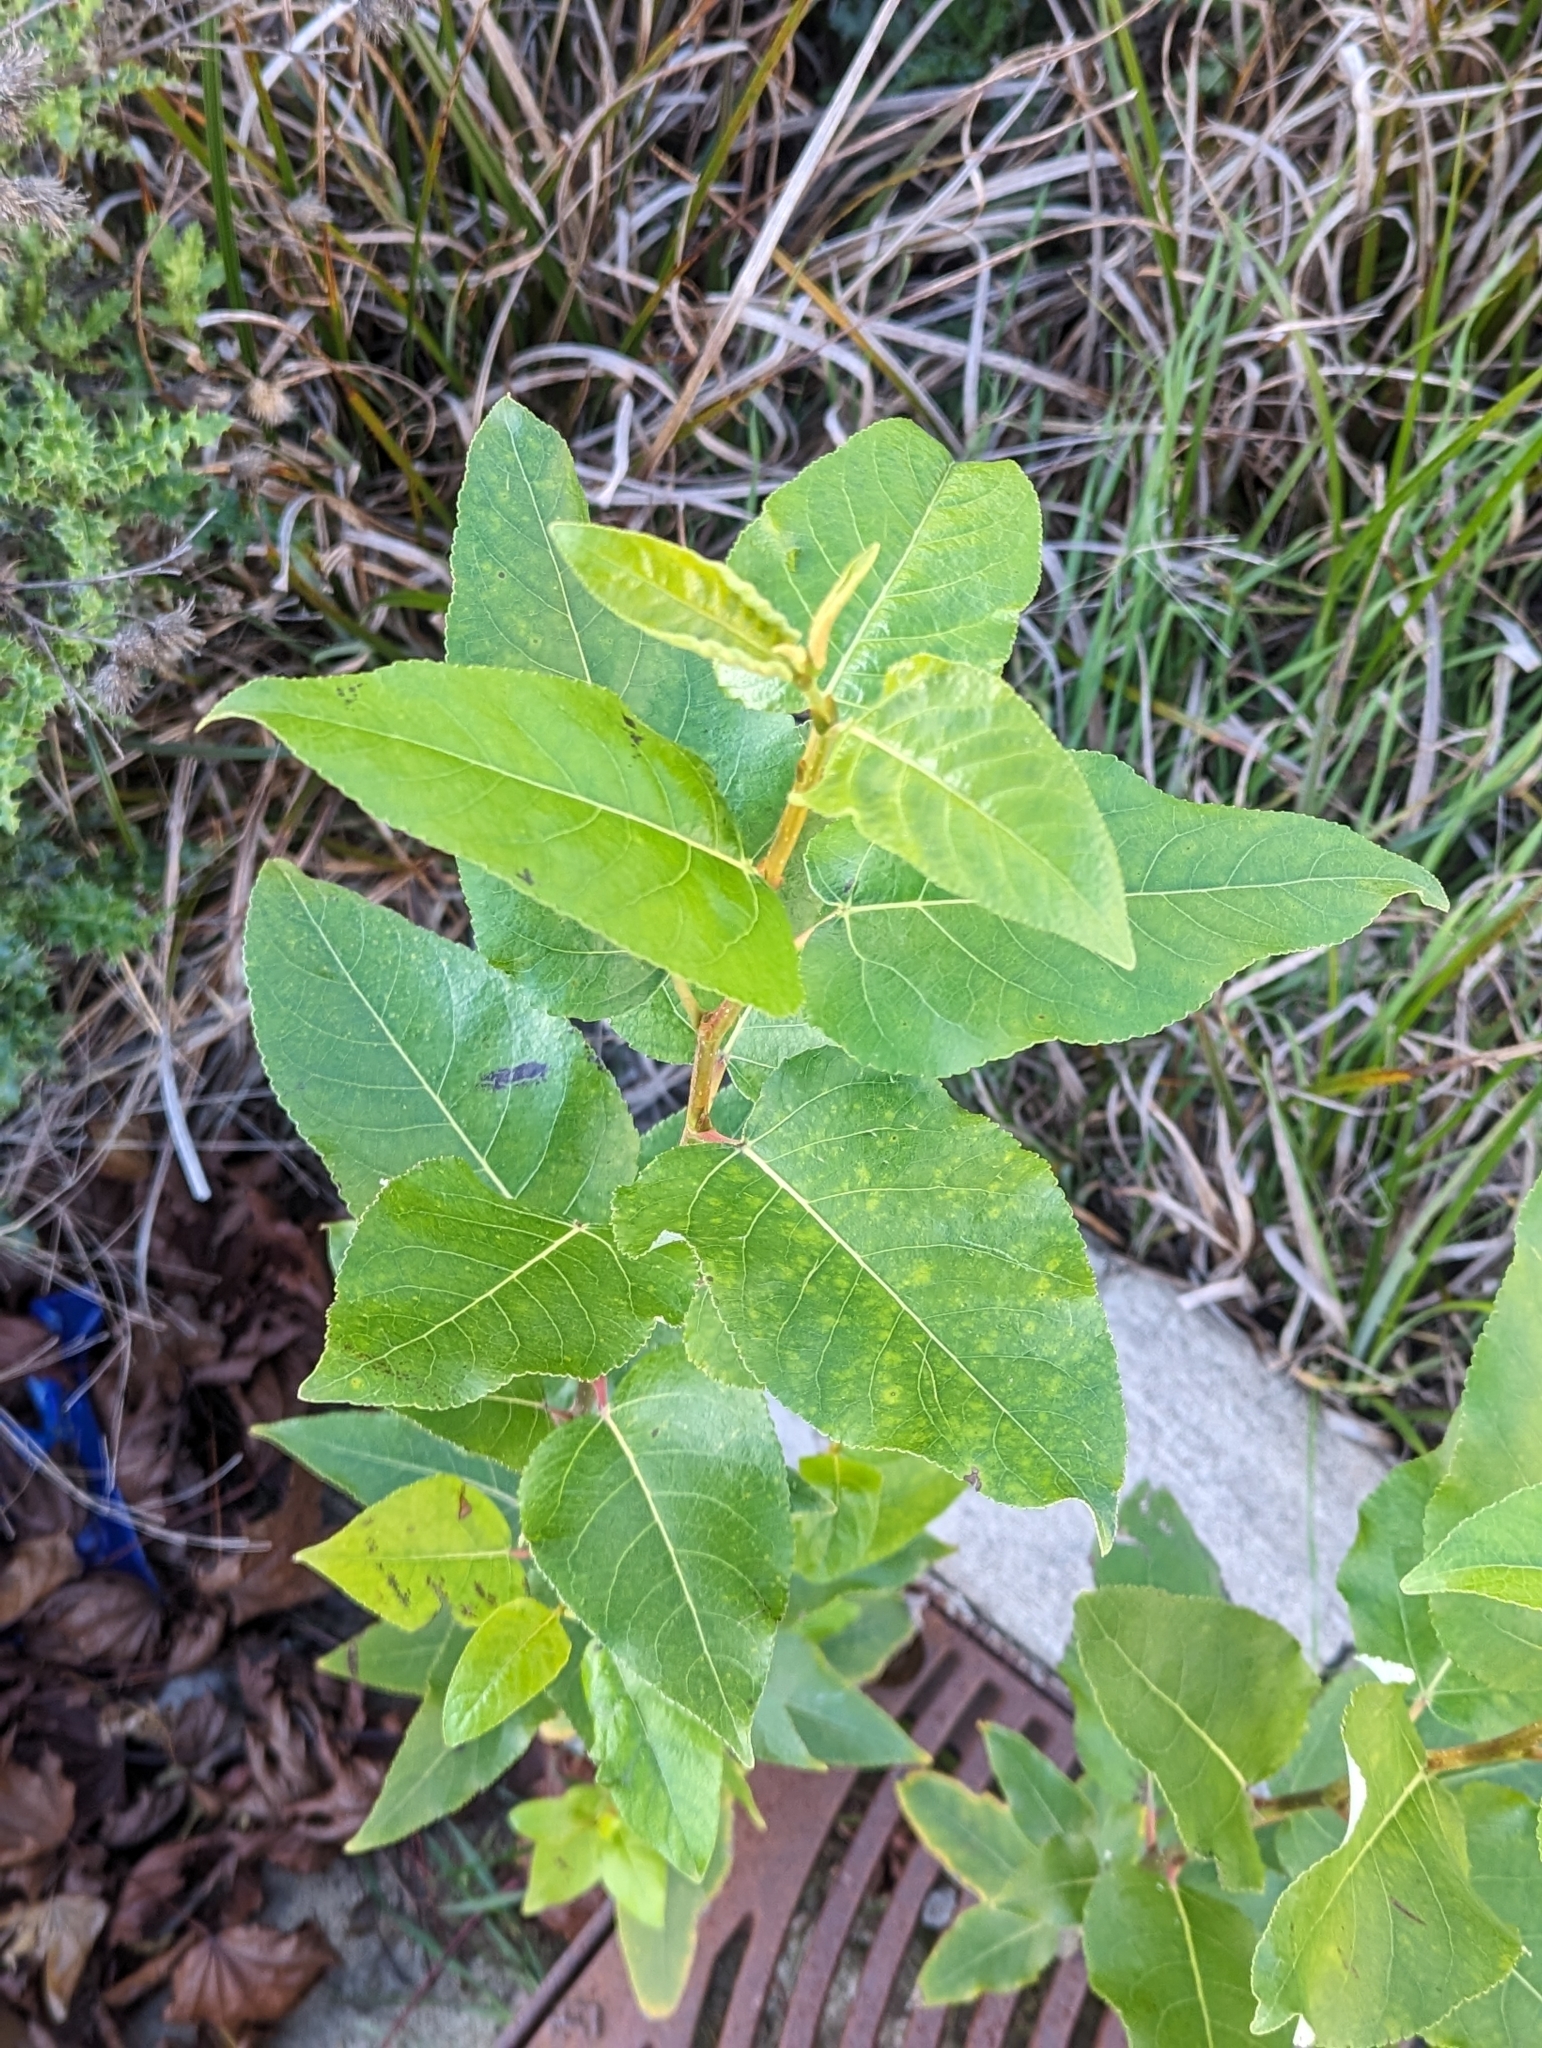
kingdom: Plantae
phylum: Tracheophyta
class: Magnoliopsida
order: Malpighiales
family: Salicaceae
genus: Populus
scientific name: Populus trichocarpa
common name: Black cottonwood
